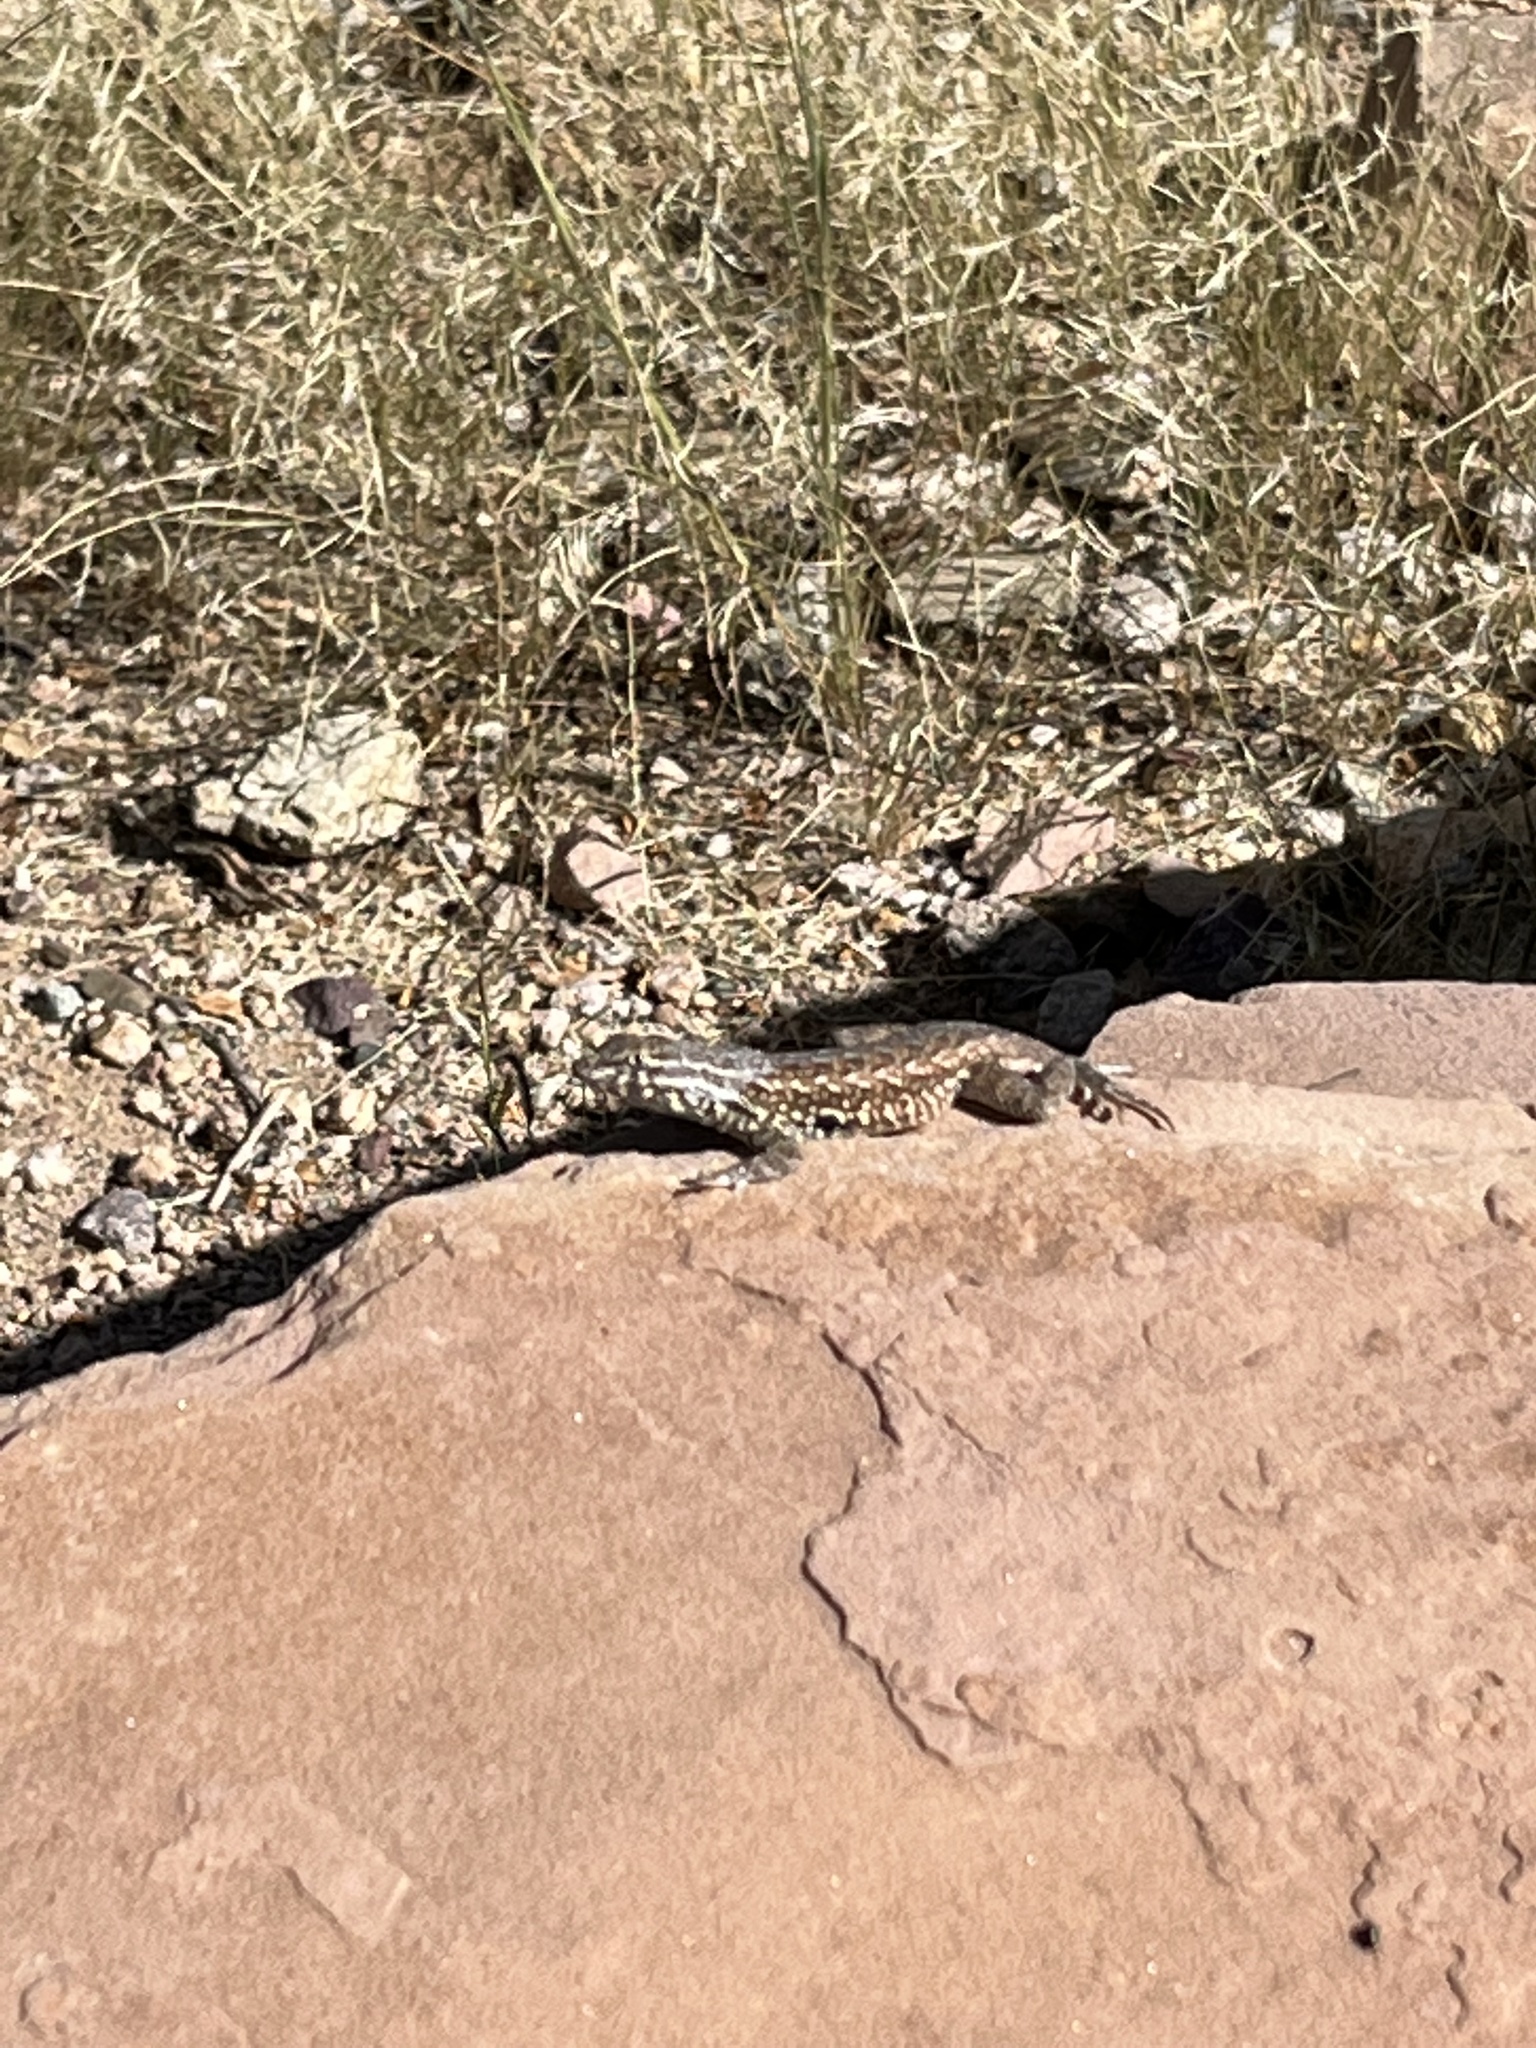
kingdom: Animalia
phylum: Chordata
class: Squamata
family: Phrynosomatidae
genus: Uta
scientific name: Uta stansburiana
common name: Side-blotched lizard
